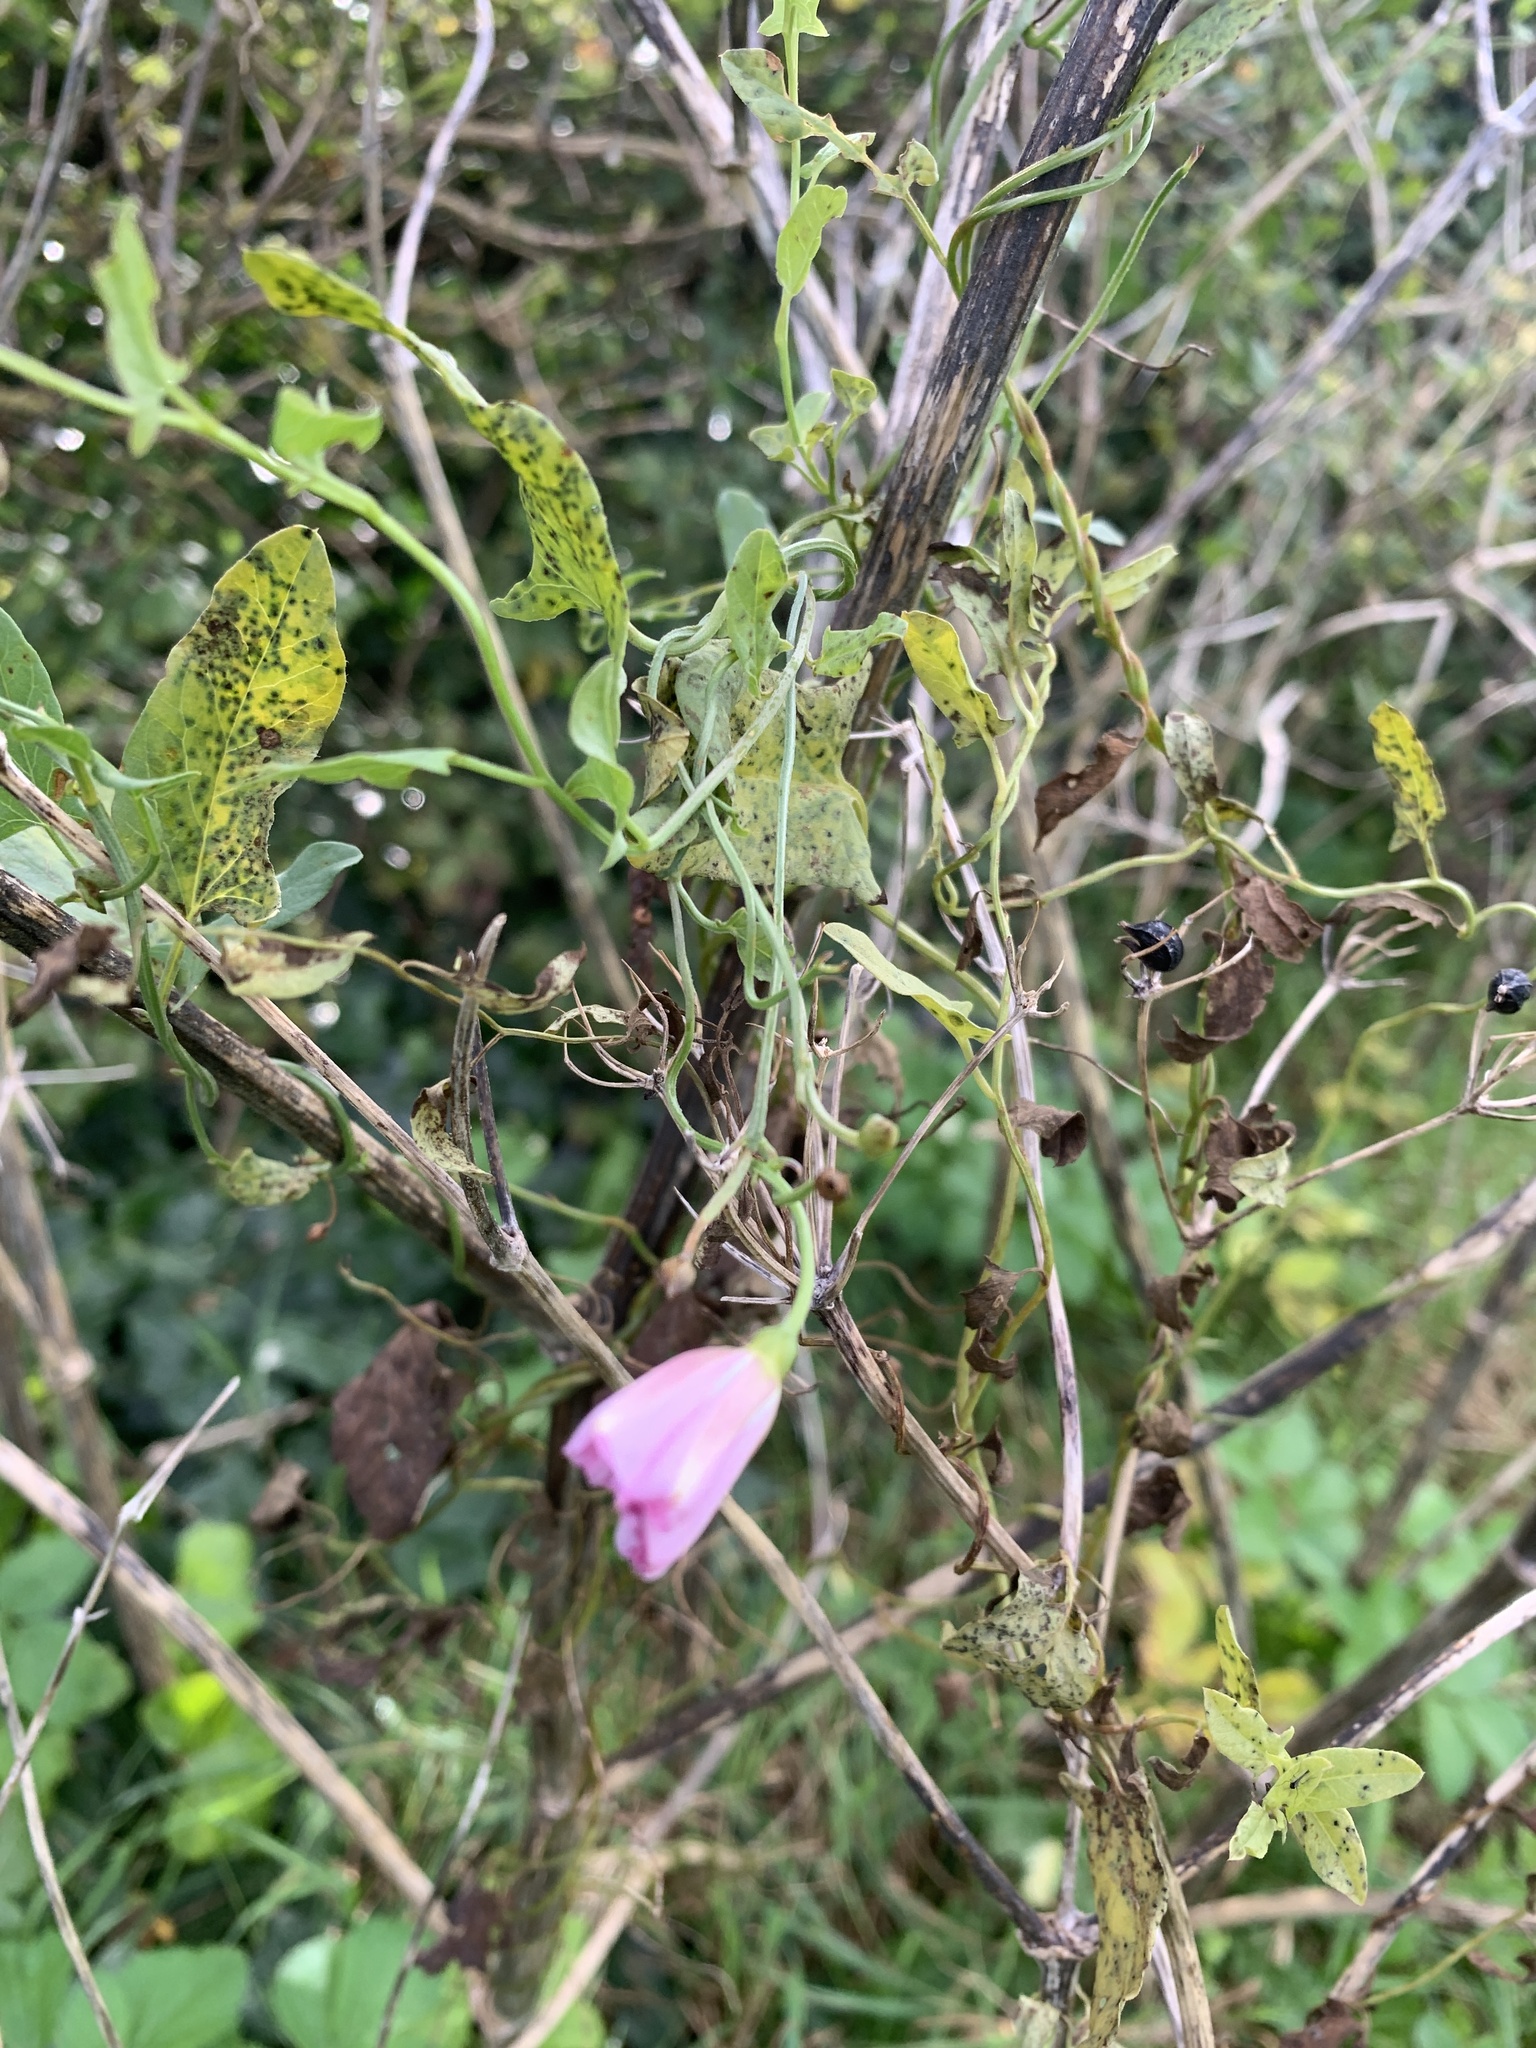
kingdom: Plantae
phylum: Tracheophyta
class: Magnoliopsida
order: Solanales
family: Convolvulaceae
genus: Convolvulus
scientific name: Convolvulus arvensis
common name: Field bindweed
